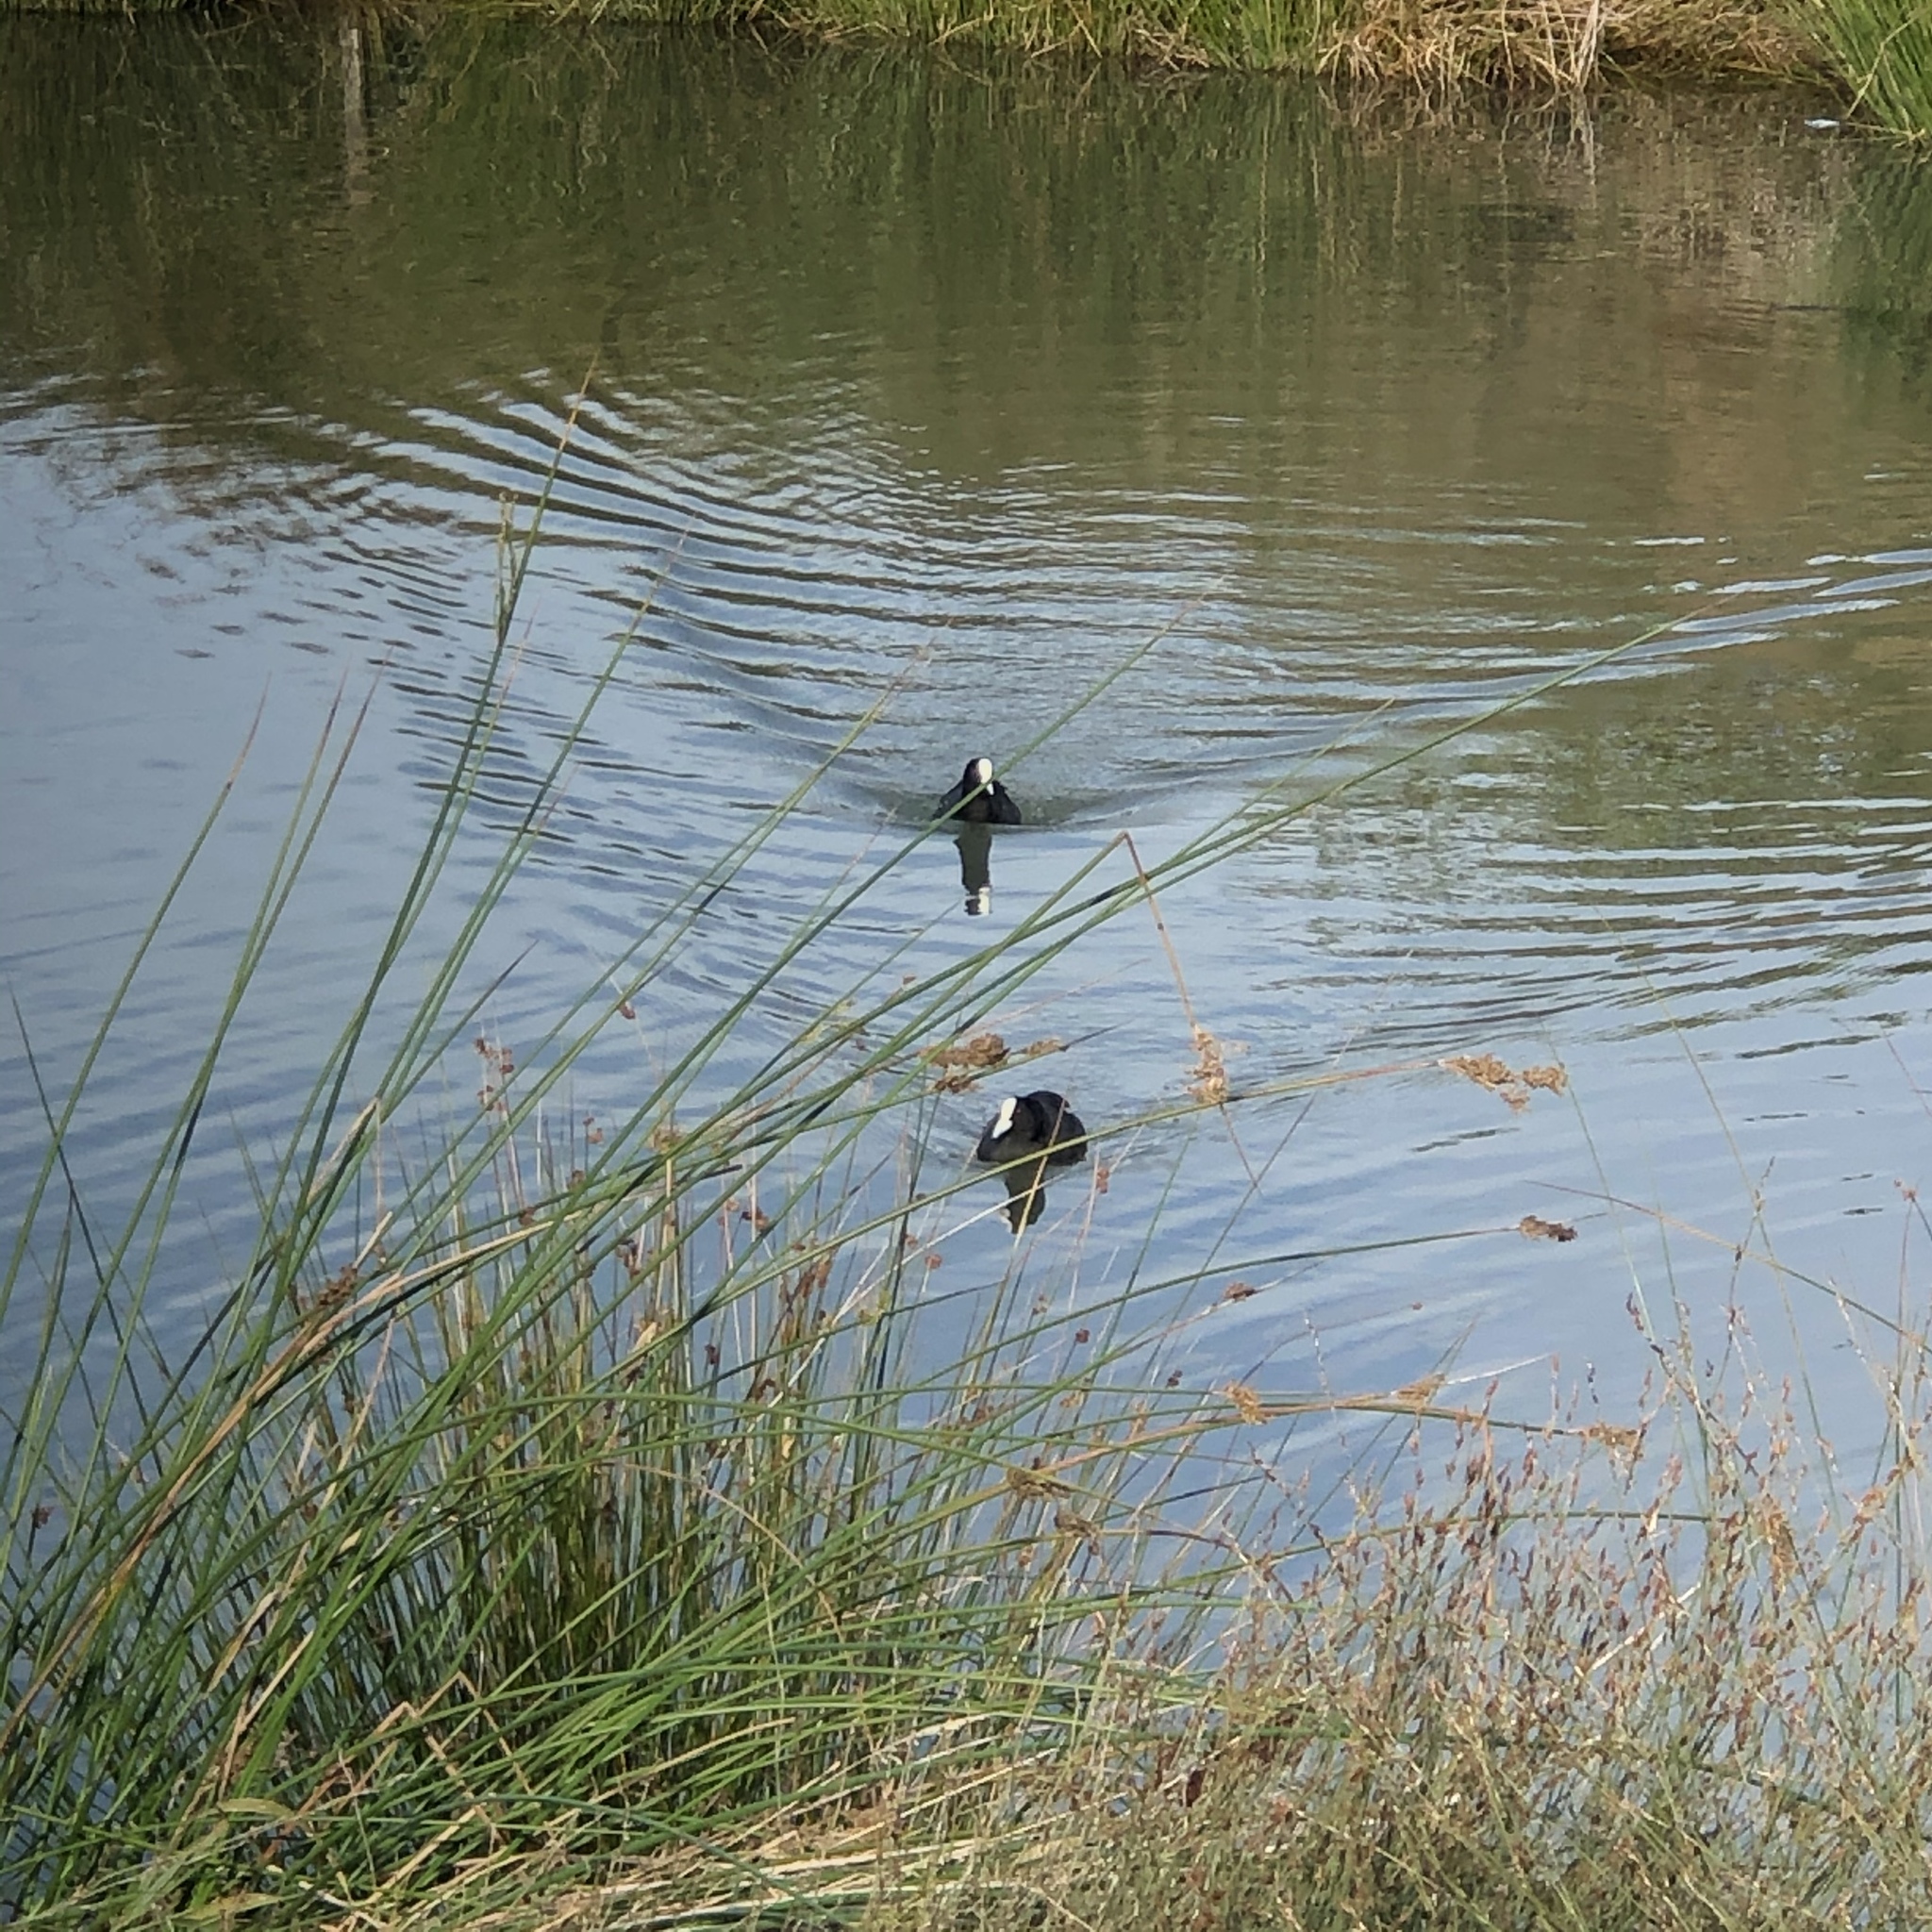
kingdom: Animalia
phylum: Chordata
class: Aves
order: Gruiformes
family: Rallidae
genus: Fulica
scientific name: Fulica atra
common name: Eurasian coot
